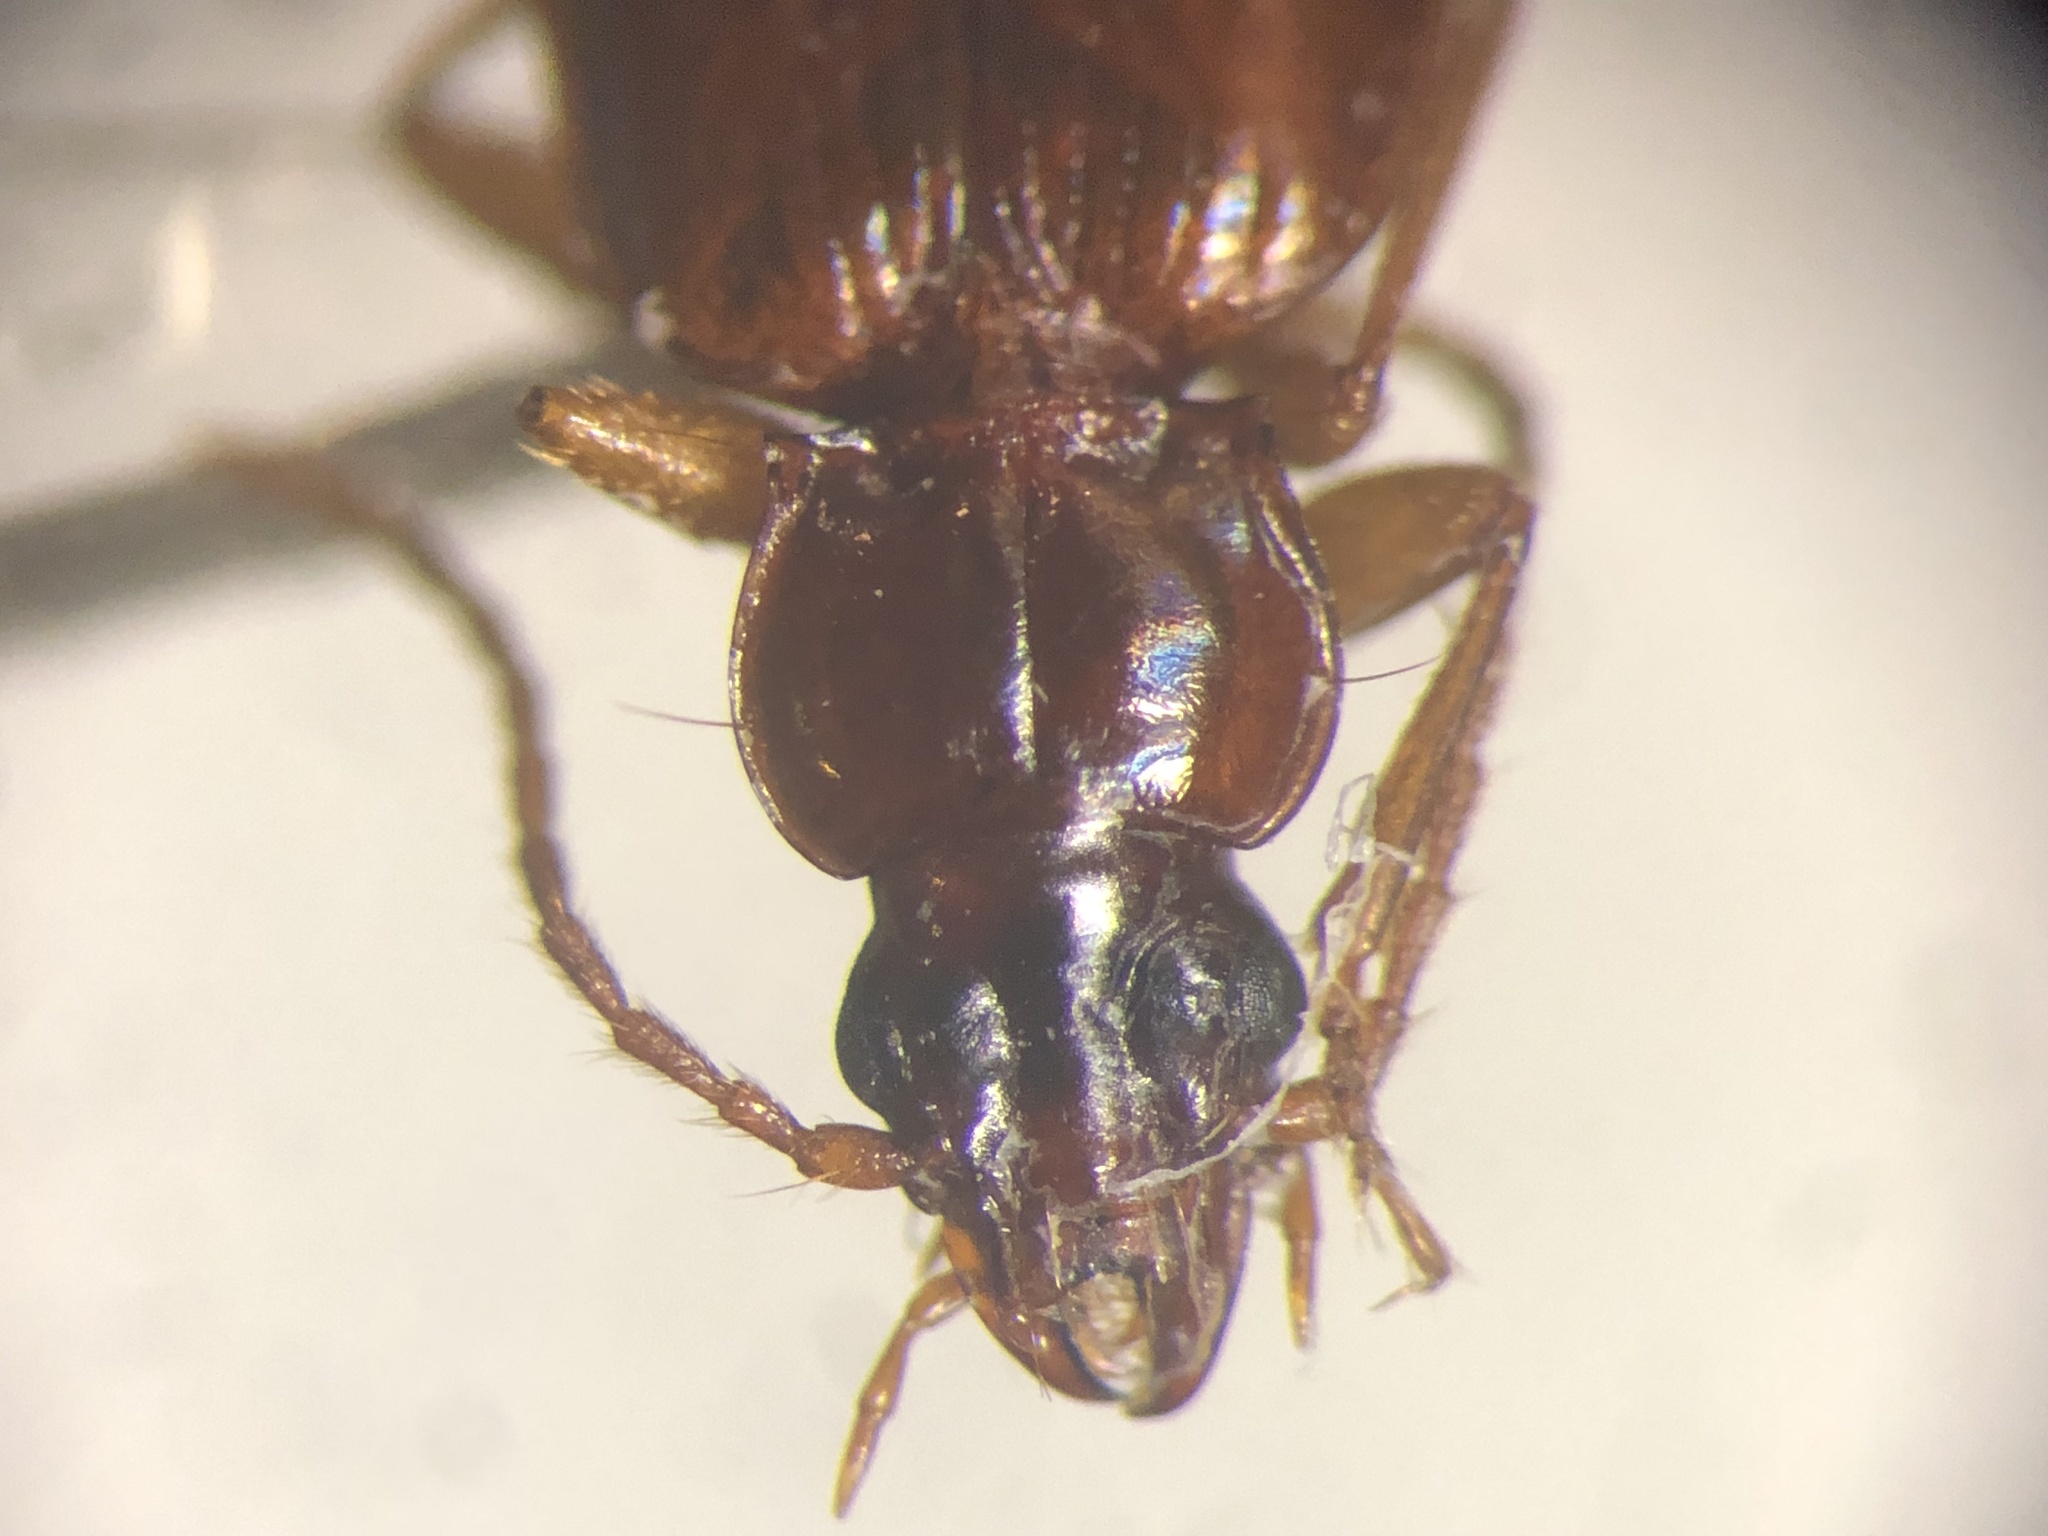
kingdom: Animalia
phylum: Arthropoda
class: Insecta
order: Coleoptera
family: Carabidae
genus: Trechus
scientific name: Trechus rubens
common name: Tawny riverbank ground beetle
